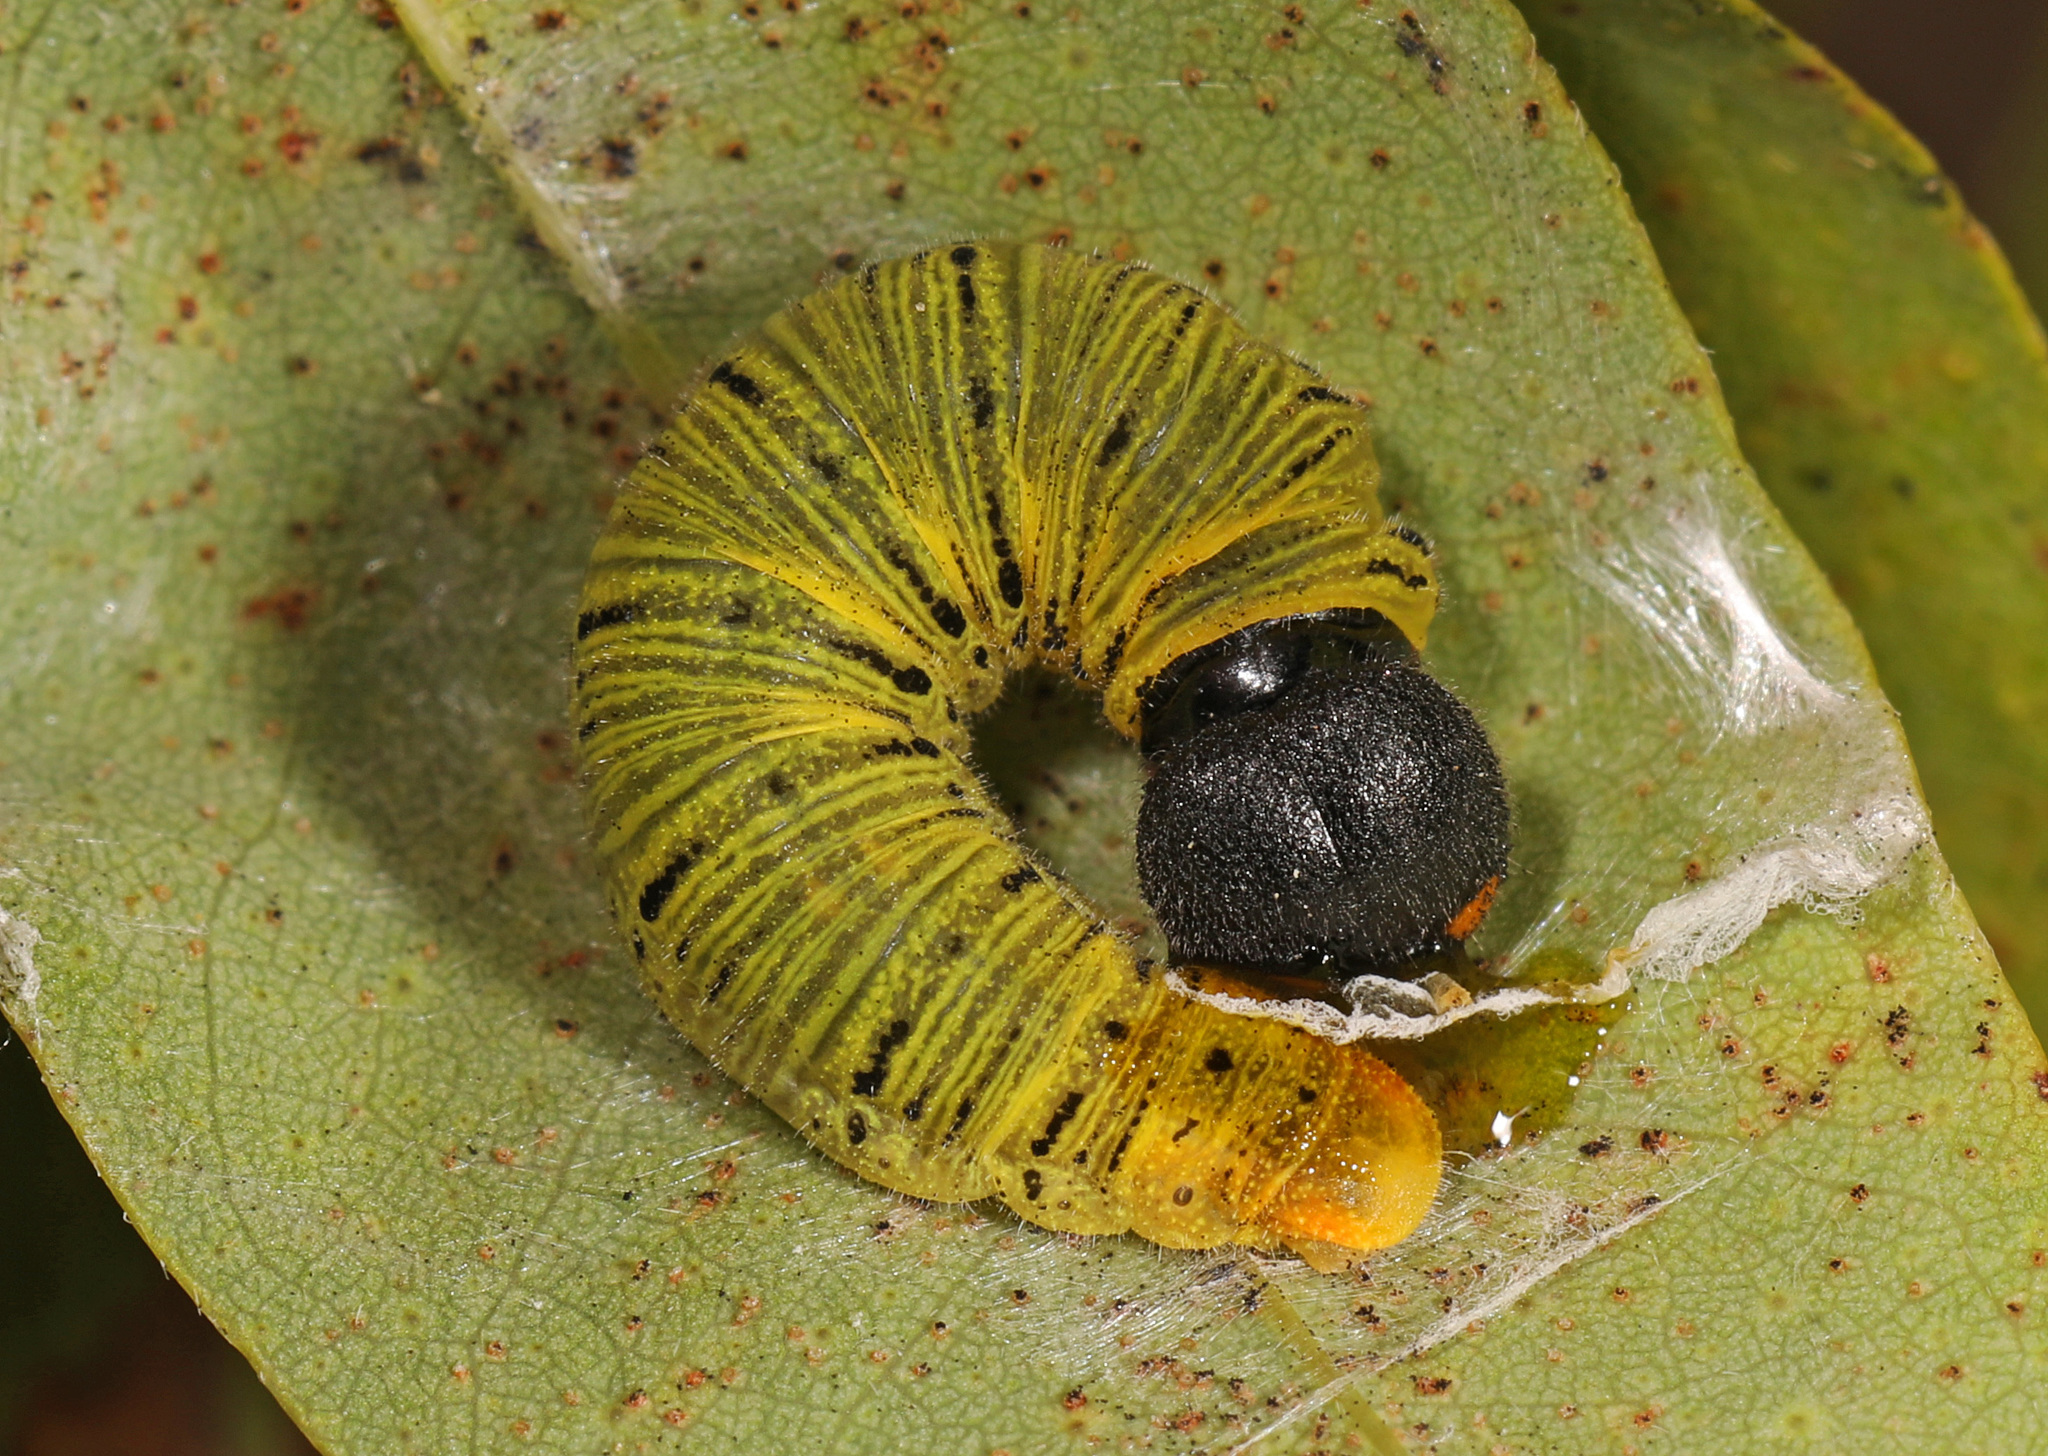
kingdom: Animalia
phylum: Arthropoda
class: Insecta
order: Lepidoptera
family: Hesperiidae
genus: Epargyreus
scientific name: Epargyreus clarus
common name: Silver-spotted skipper
